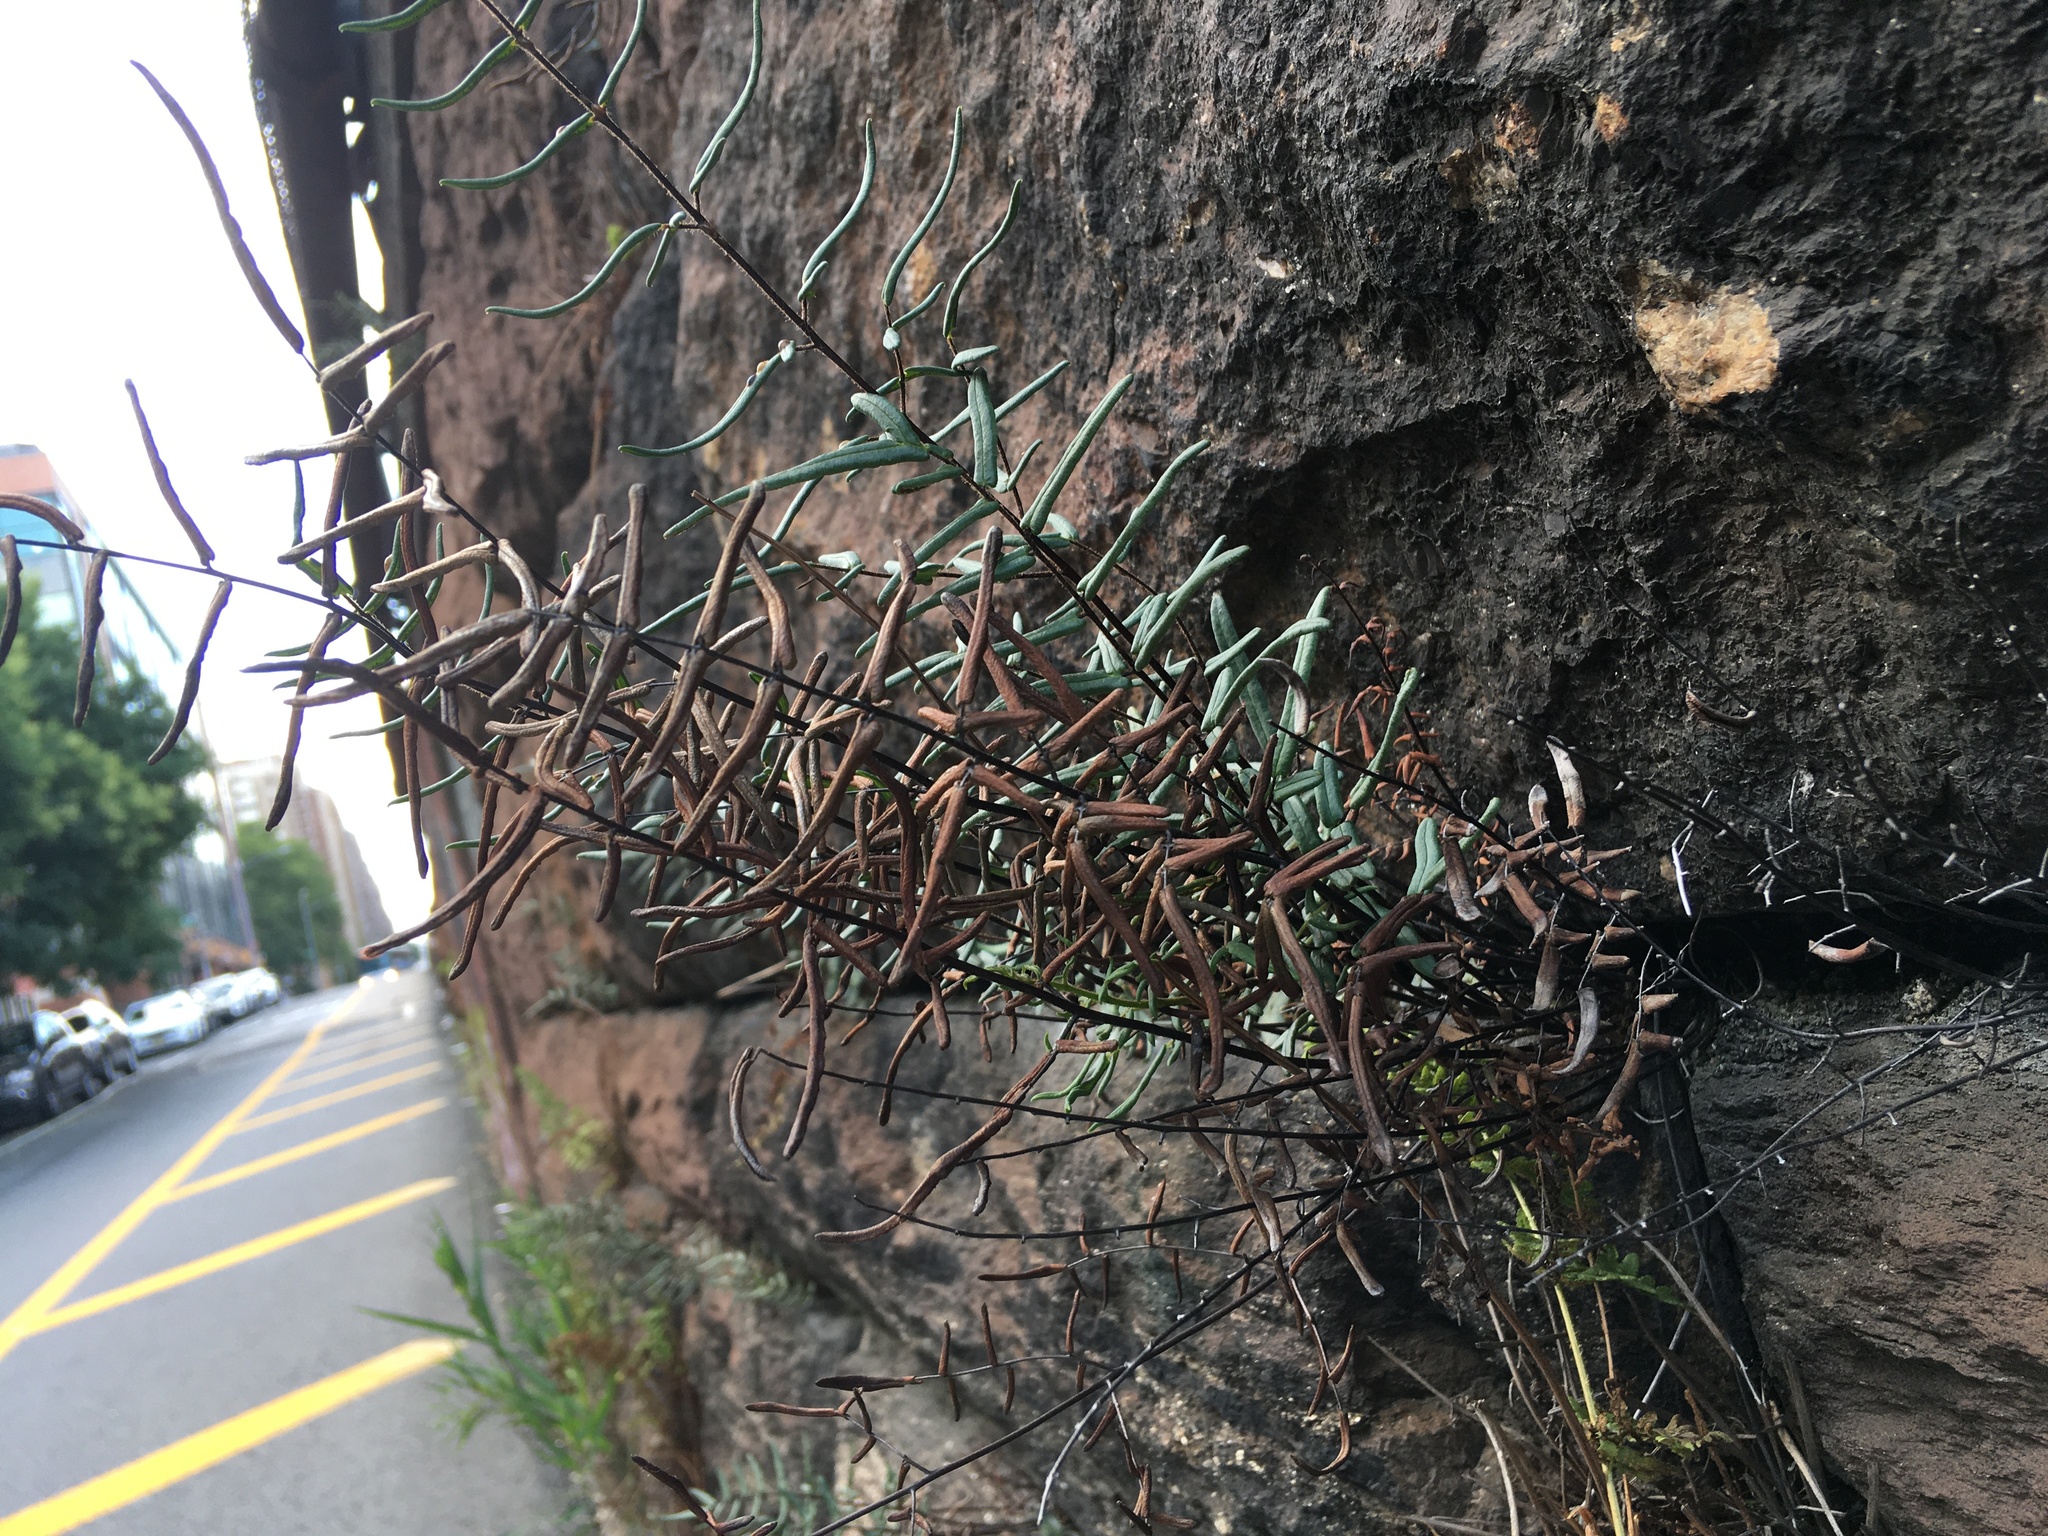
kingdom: Plantae
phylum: Tracheophyta
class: Polypodiopsida
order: Polypodiales
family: Pteridaceae
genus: Pellaea
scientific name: Pellaea atropurpurea
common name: Hairy cliffbrake
